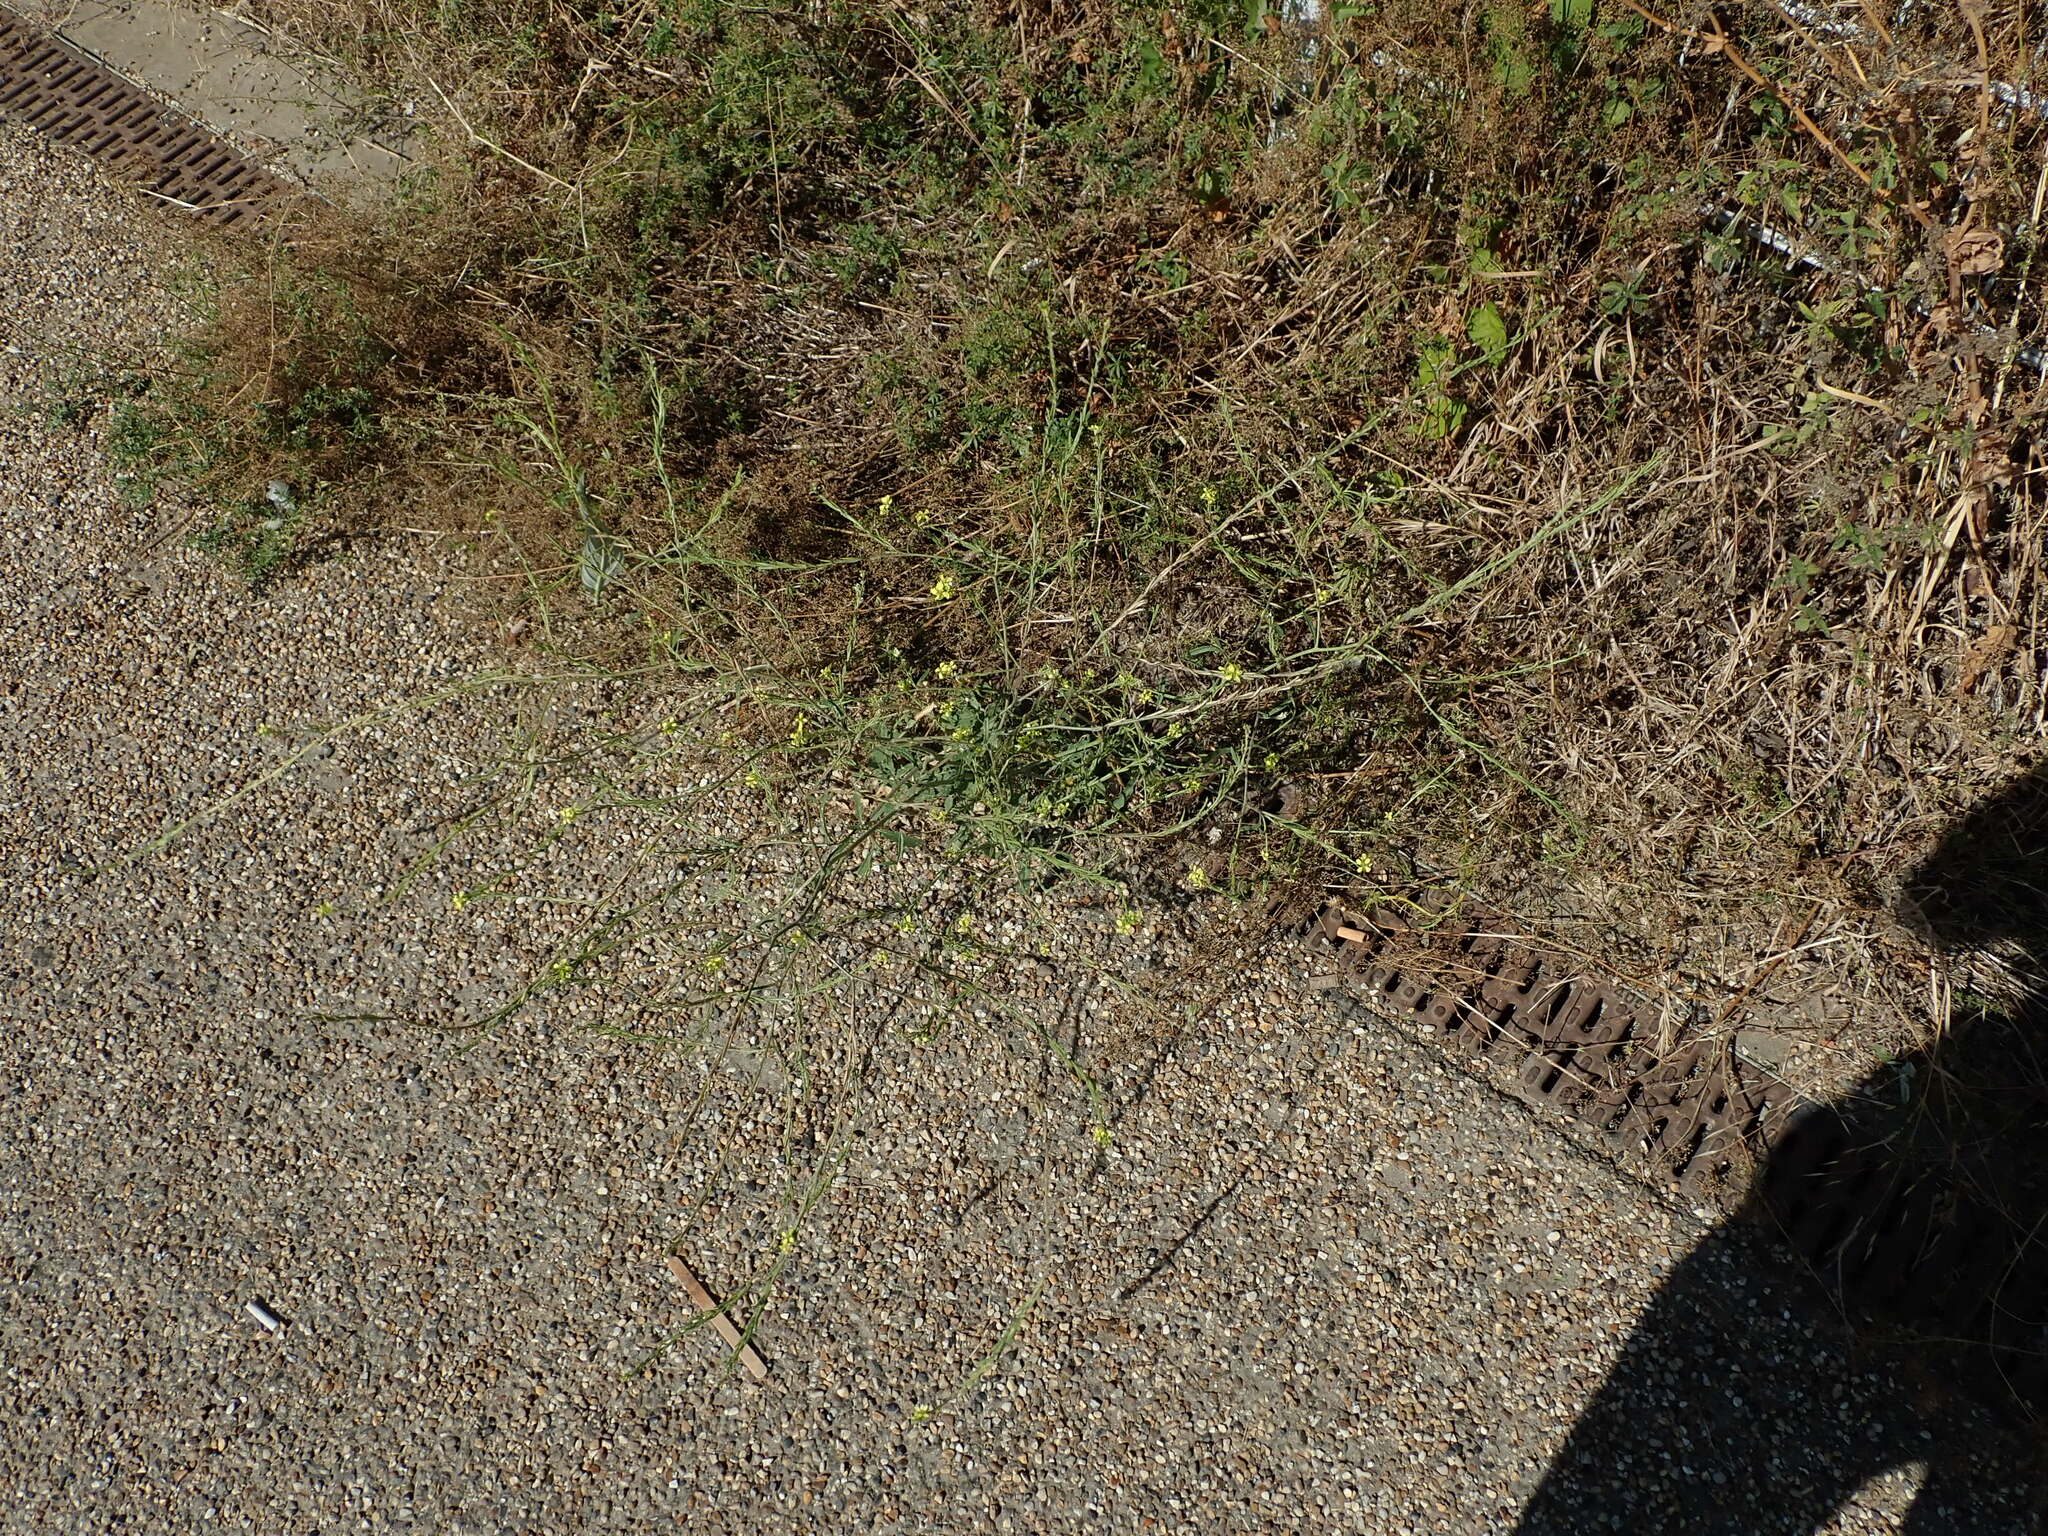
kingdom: Plantae
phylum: Tracheophyta
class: Magnoliopsida
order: Brassicales
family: Brassicaceae
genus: Hirschfeldia
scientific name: Hirschfeldia incana
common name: Hoary mustard
